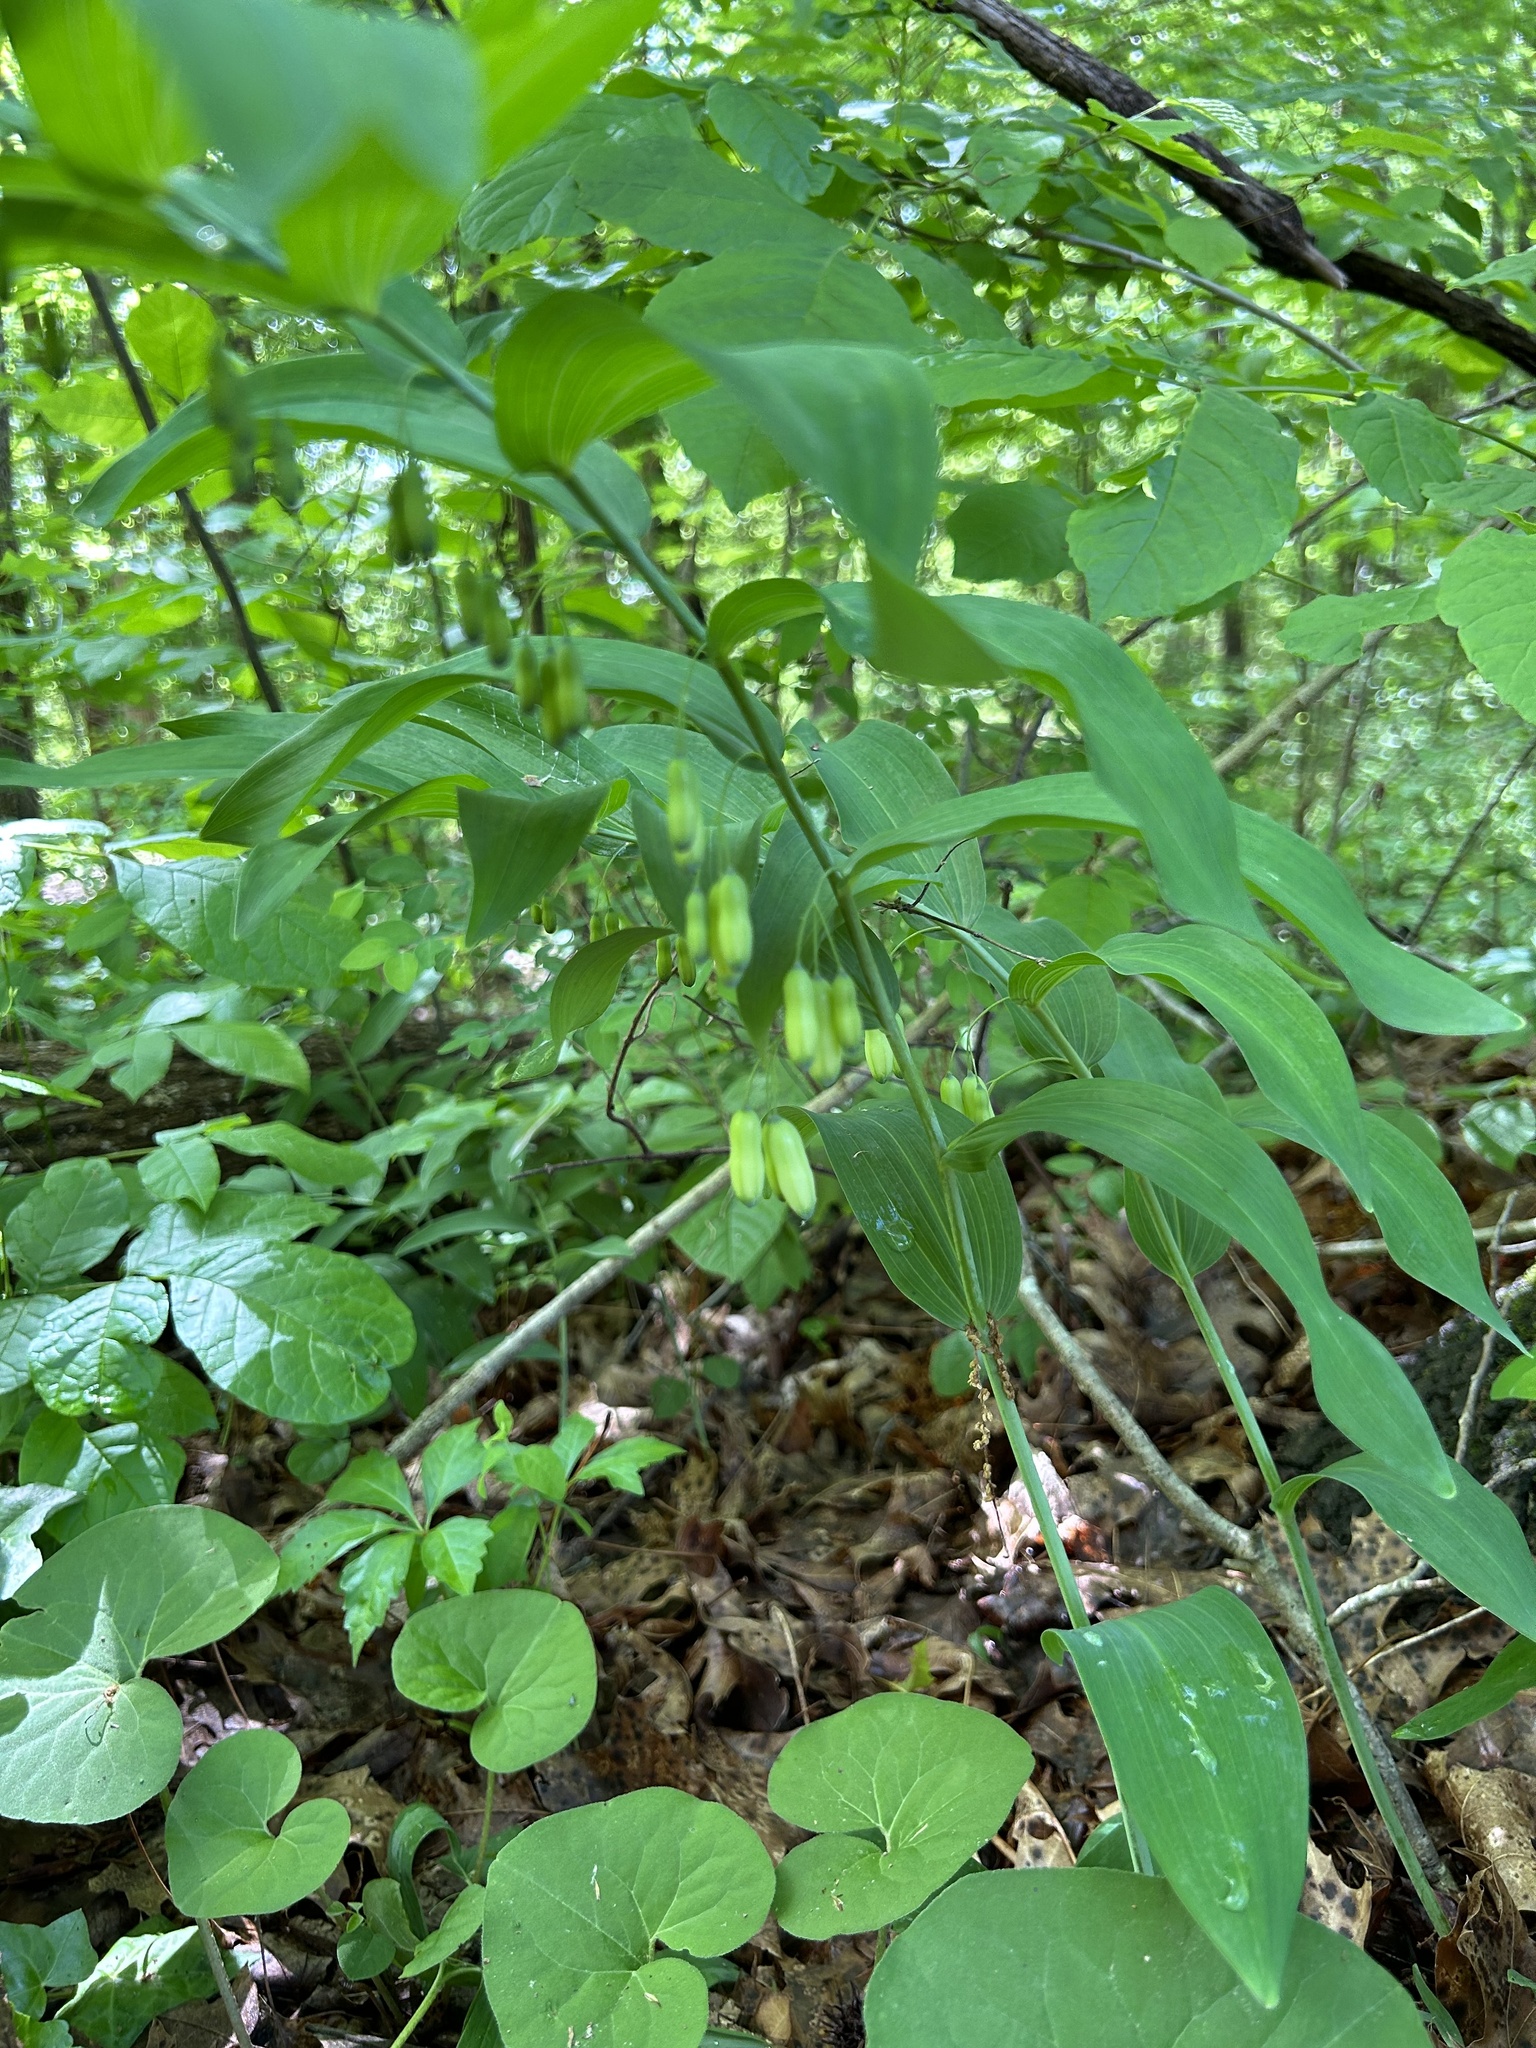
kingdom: Plantae
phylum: Tracheophyta
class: Liliopsida
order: Asparagales
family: Asparagaceae
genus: Polygonatum
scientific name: Polygonatum biflorum
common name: American solomon's-seal
